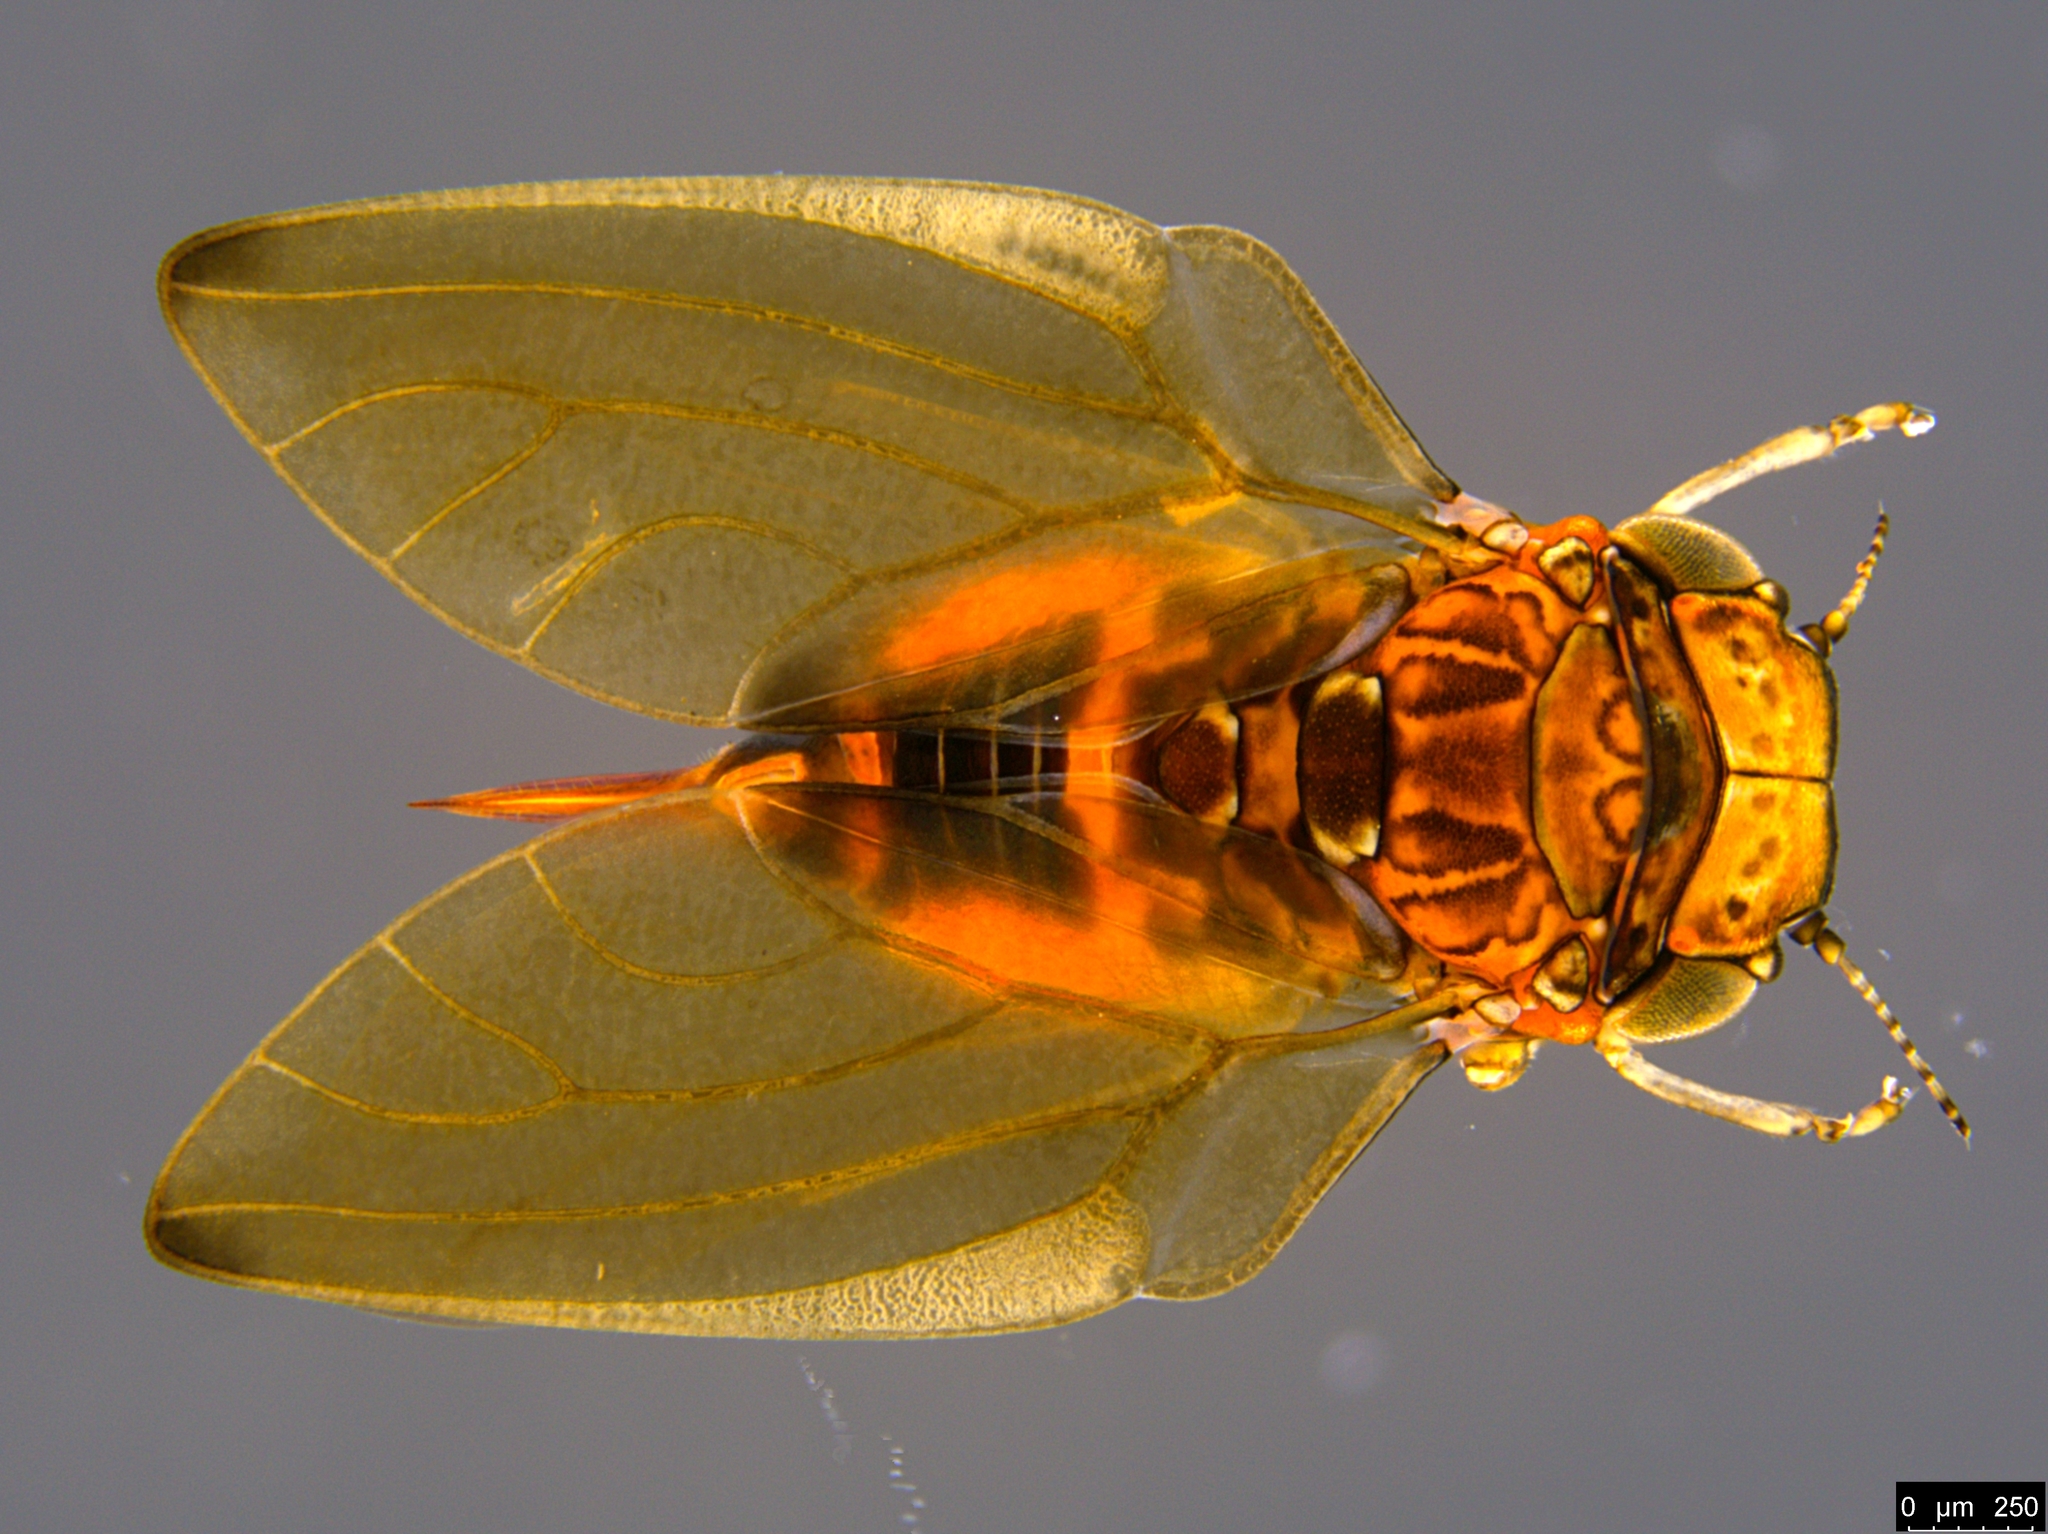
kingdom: Animalia
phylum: Arthropoda
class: Insecta
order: Hemiptera
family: Aphalaridae
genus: Phyllolyma
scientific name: Phyllolyma rufa
